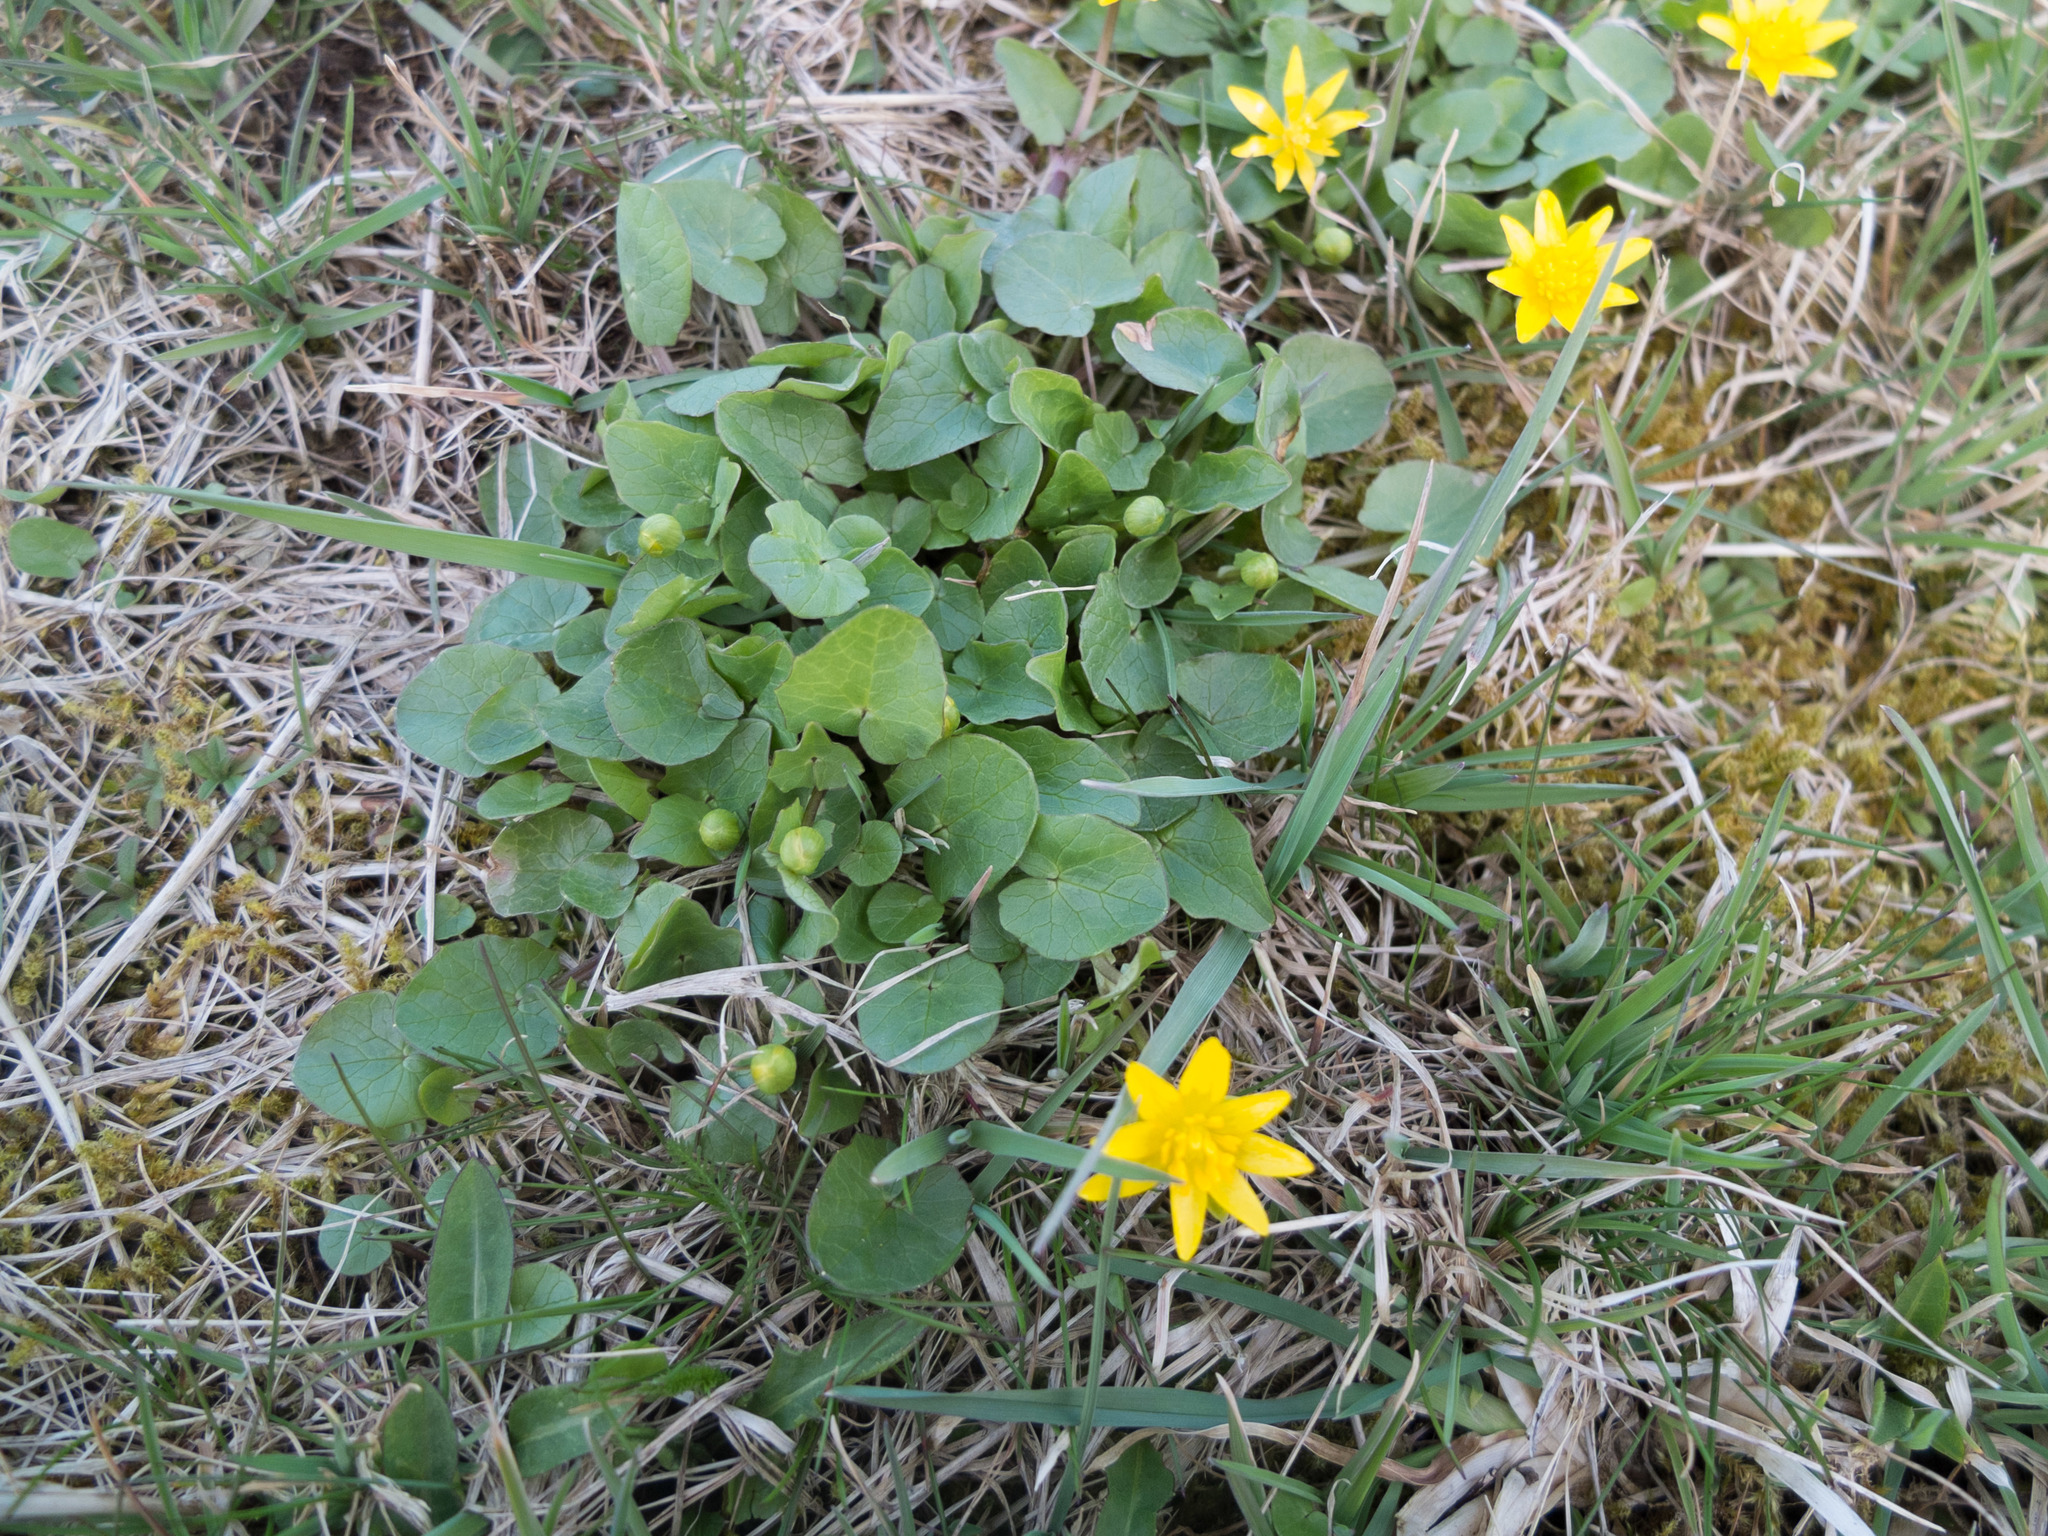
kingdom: Plantae
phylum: Tracheophyta
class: Magnoliopsida
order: Ranunculales
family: Ranunculaceae
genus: Ficaria
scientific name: Ficaria verna
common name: Lesser celandine
